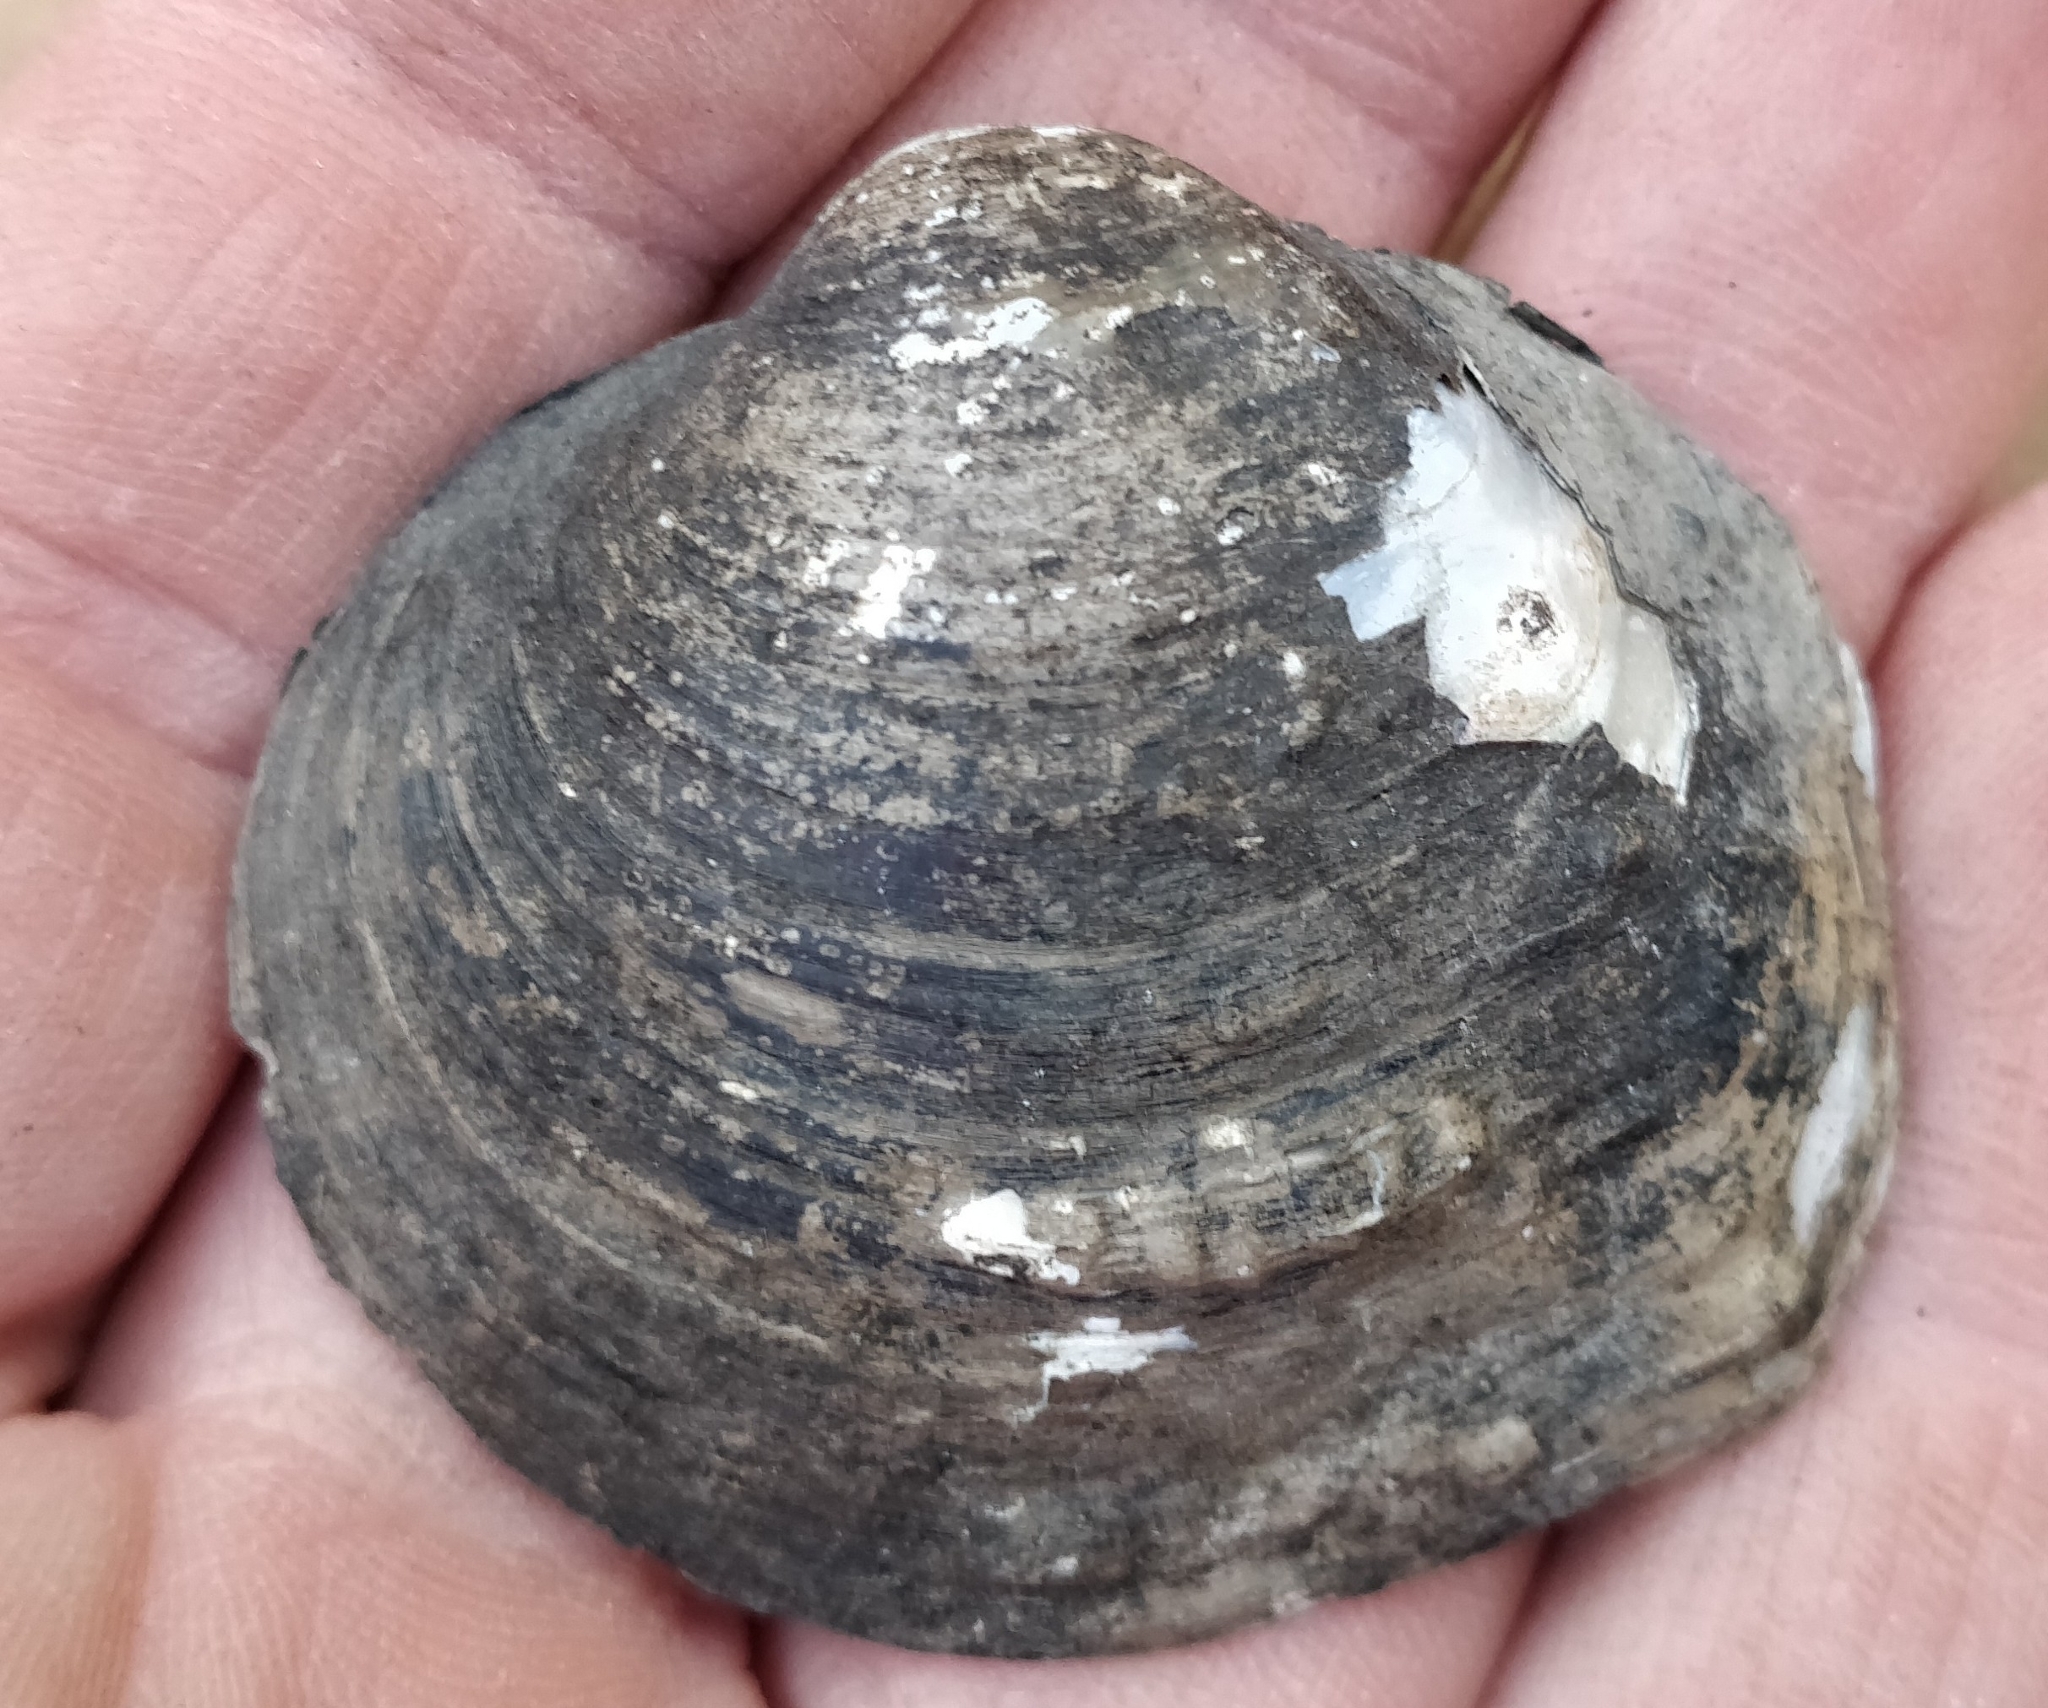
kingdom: Animalia
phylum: Mollusca
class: Bivalvia
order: Unionida
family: Unionidae
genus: Cyclonaias
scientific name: Cyclonaias pustulosa
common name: Pimpleback
